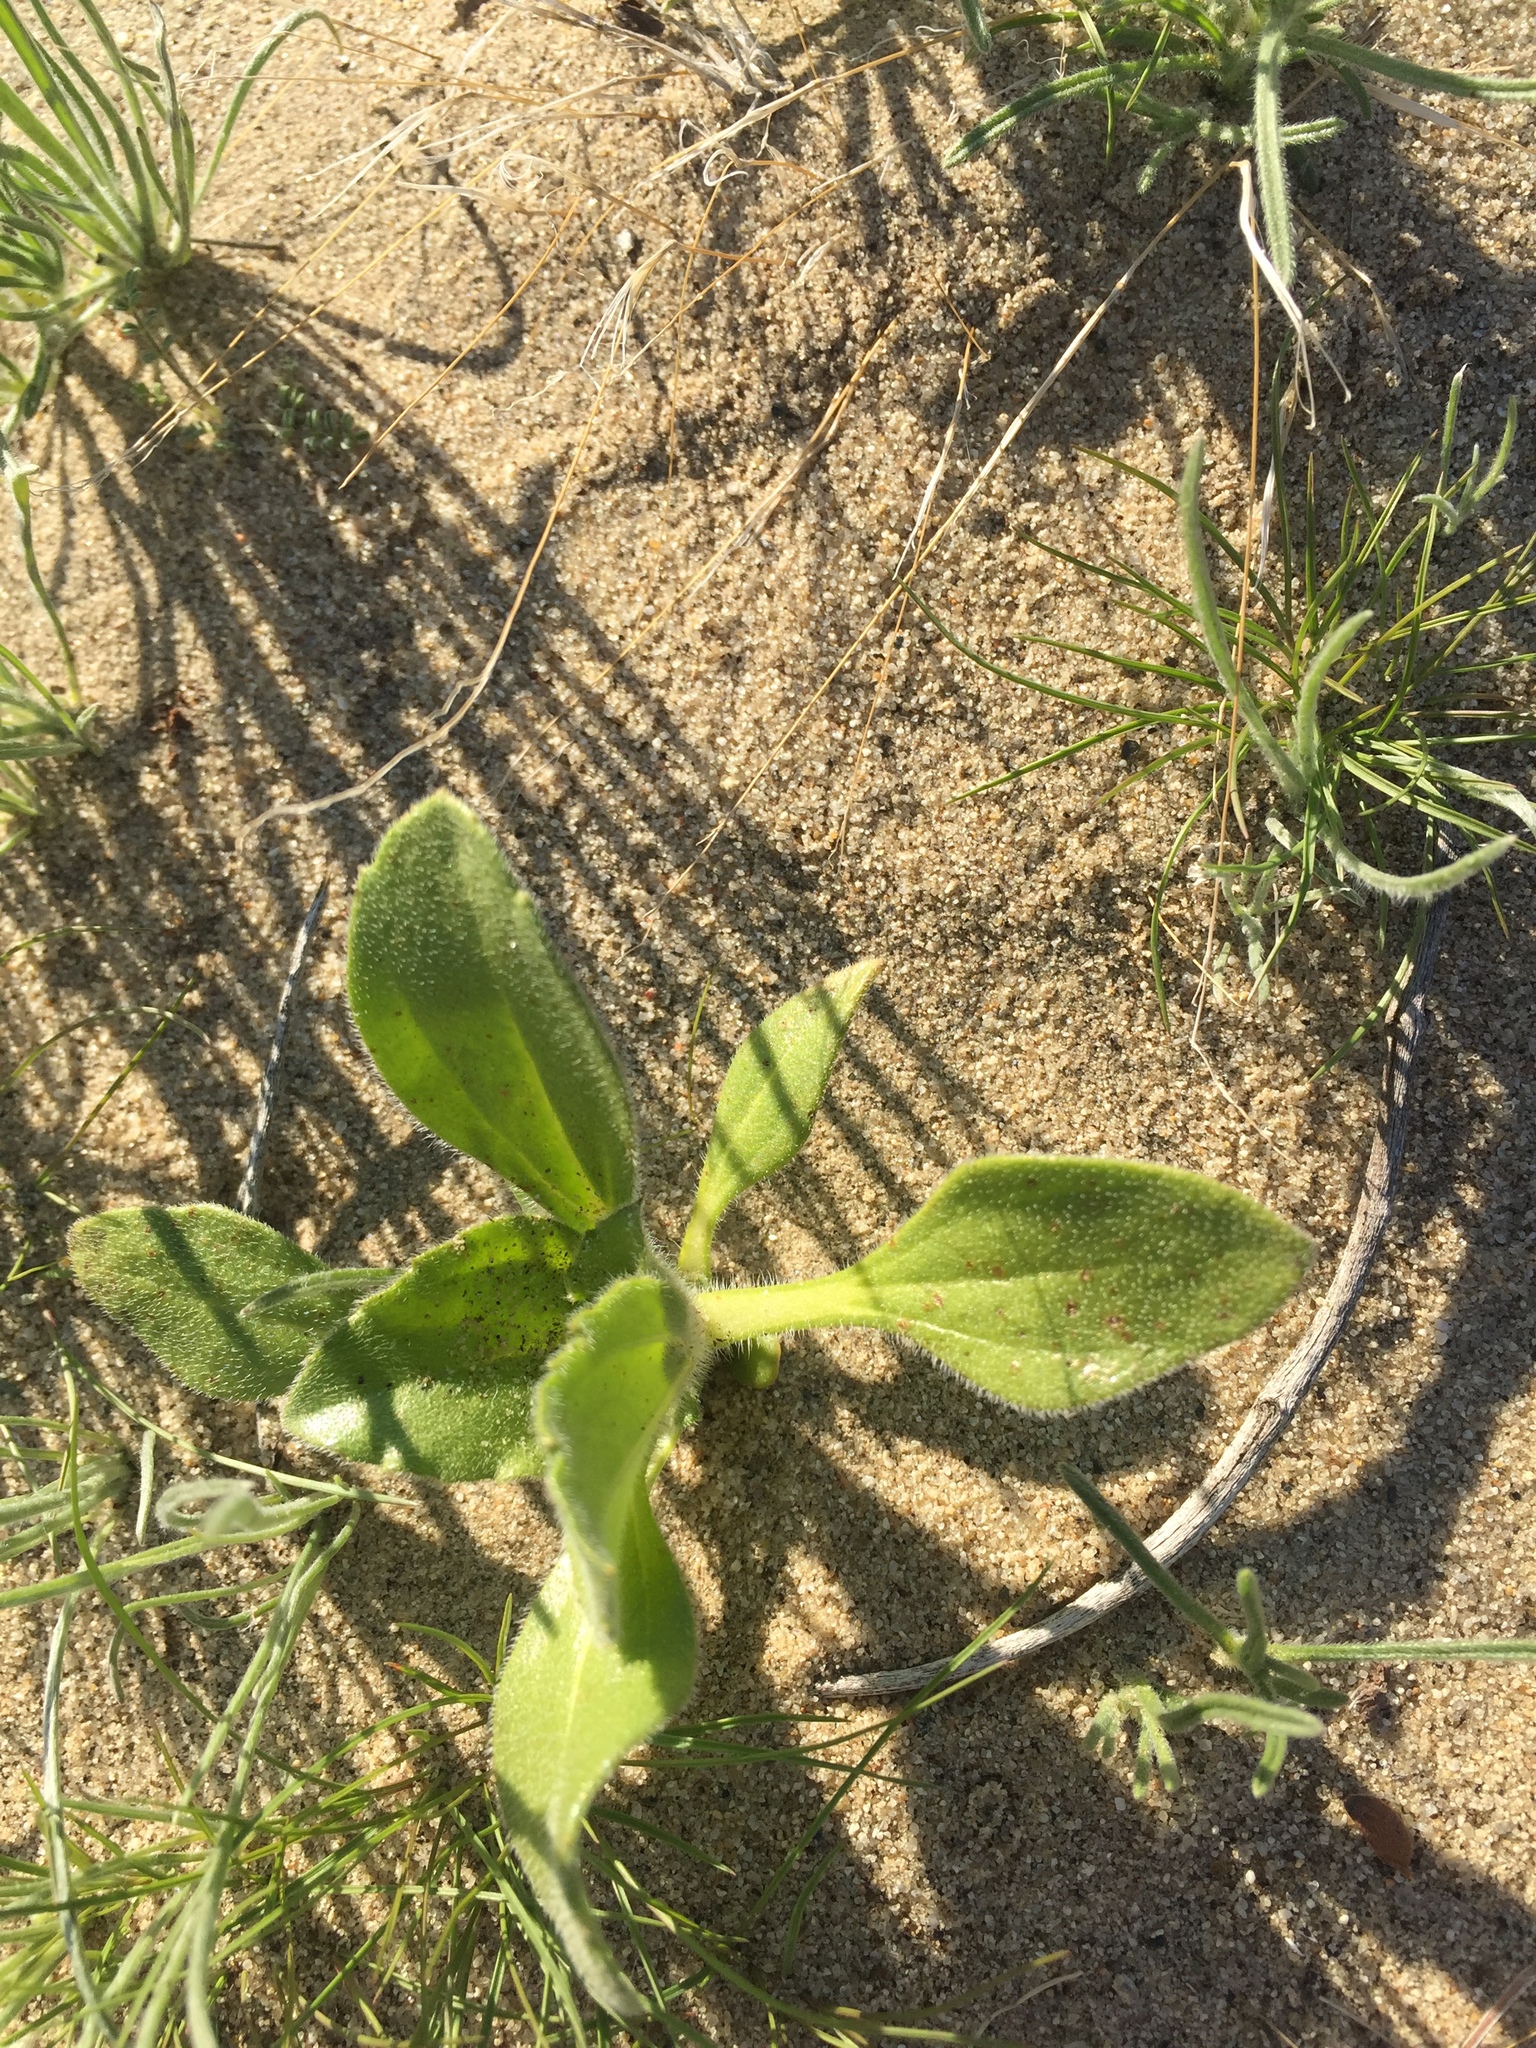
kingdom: Plantae
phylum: Tracheophyta
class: Magnoliopsida
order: Asterales
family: Asteraceae
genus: Geraea
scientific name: Geraea canescens
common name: Desert-gold
